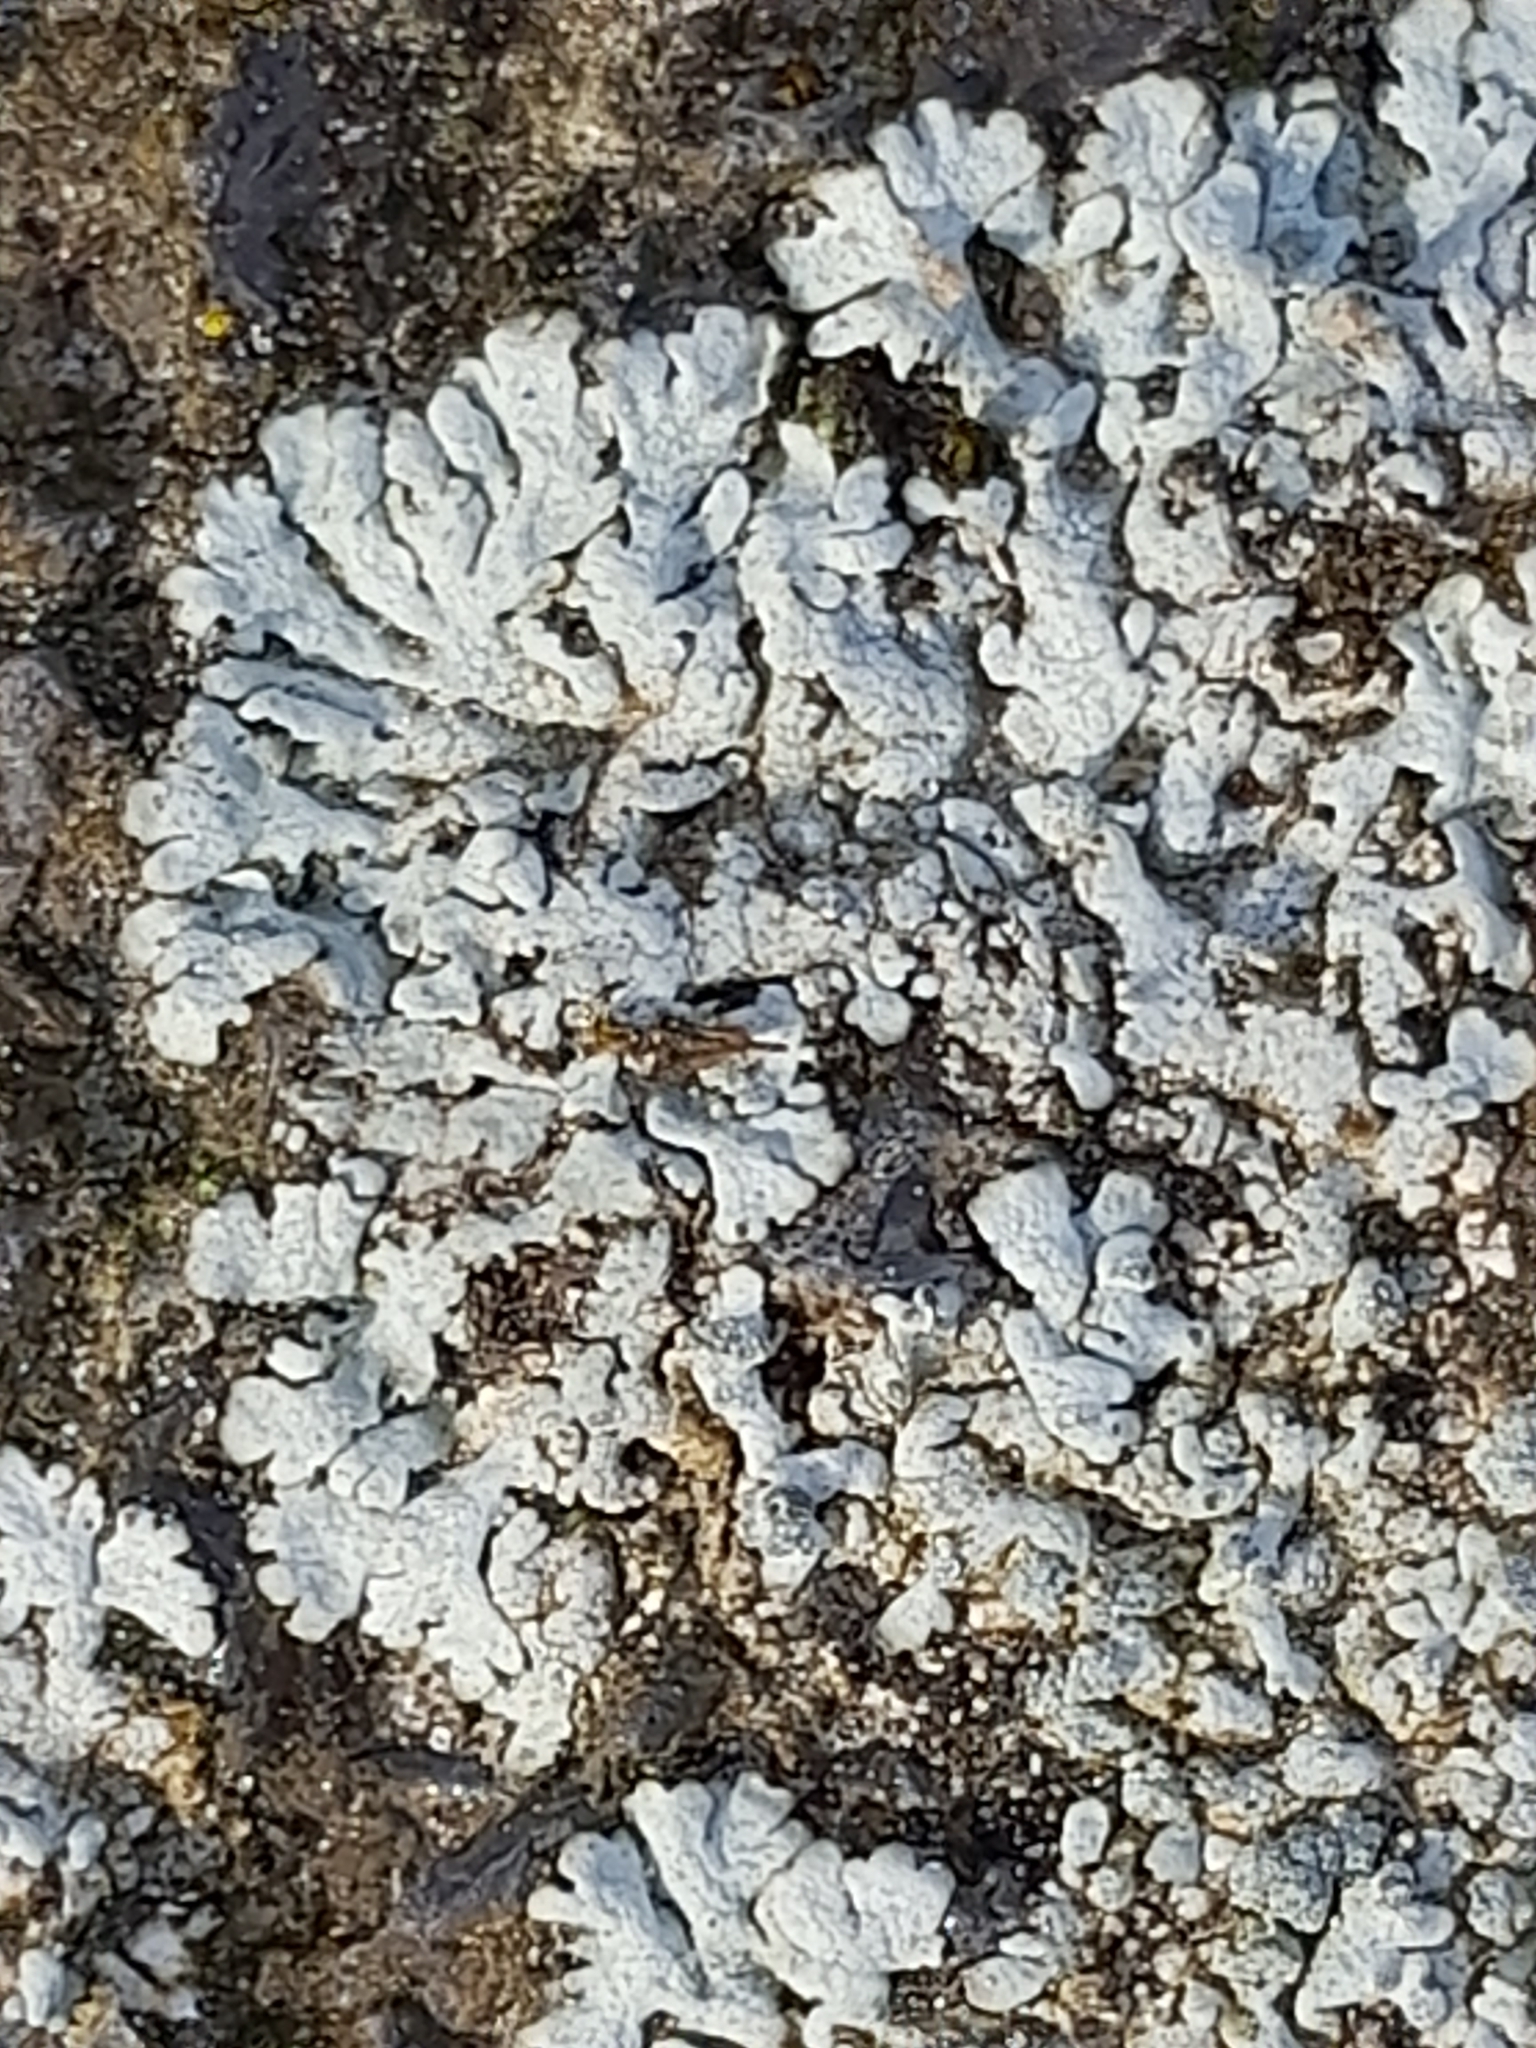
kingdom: Fungi
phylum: Ascomycota
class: Lecanoromycetes
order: Caliciales
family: Physciaceae
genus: Physcia
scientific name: Physcia caesia
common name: Blue-gray rosette lichen
